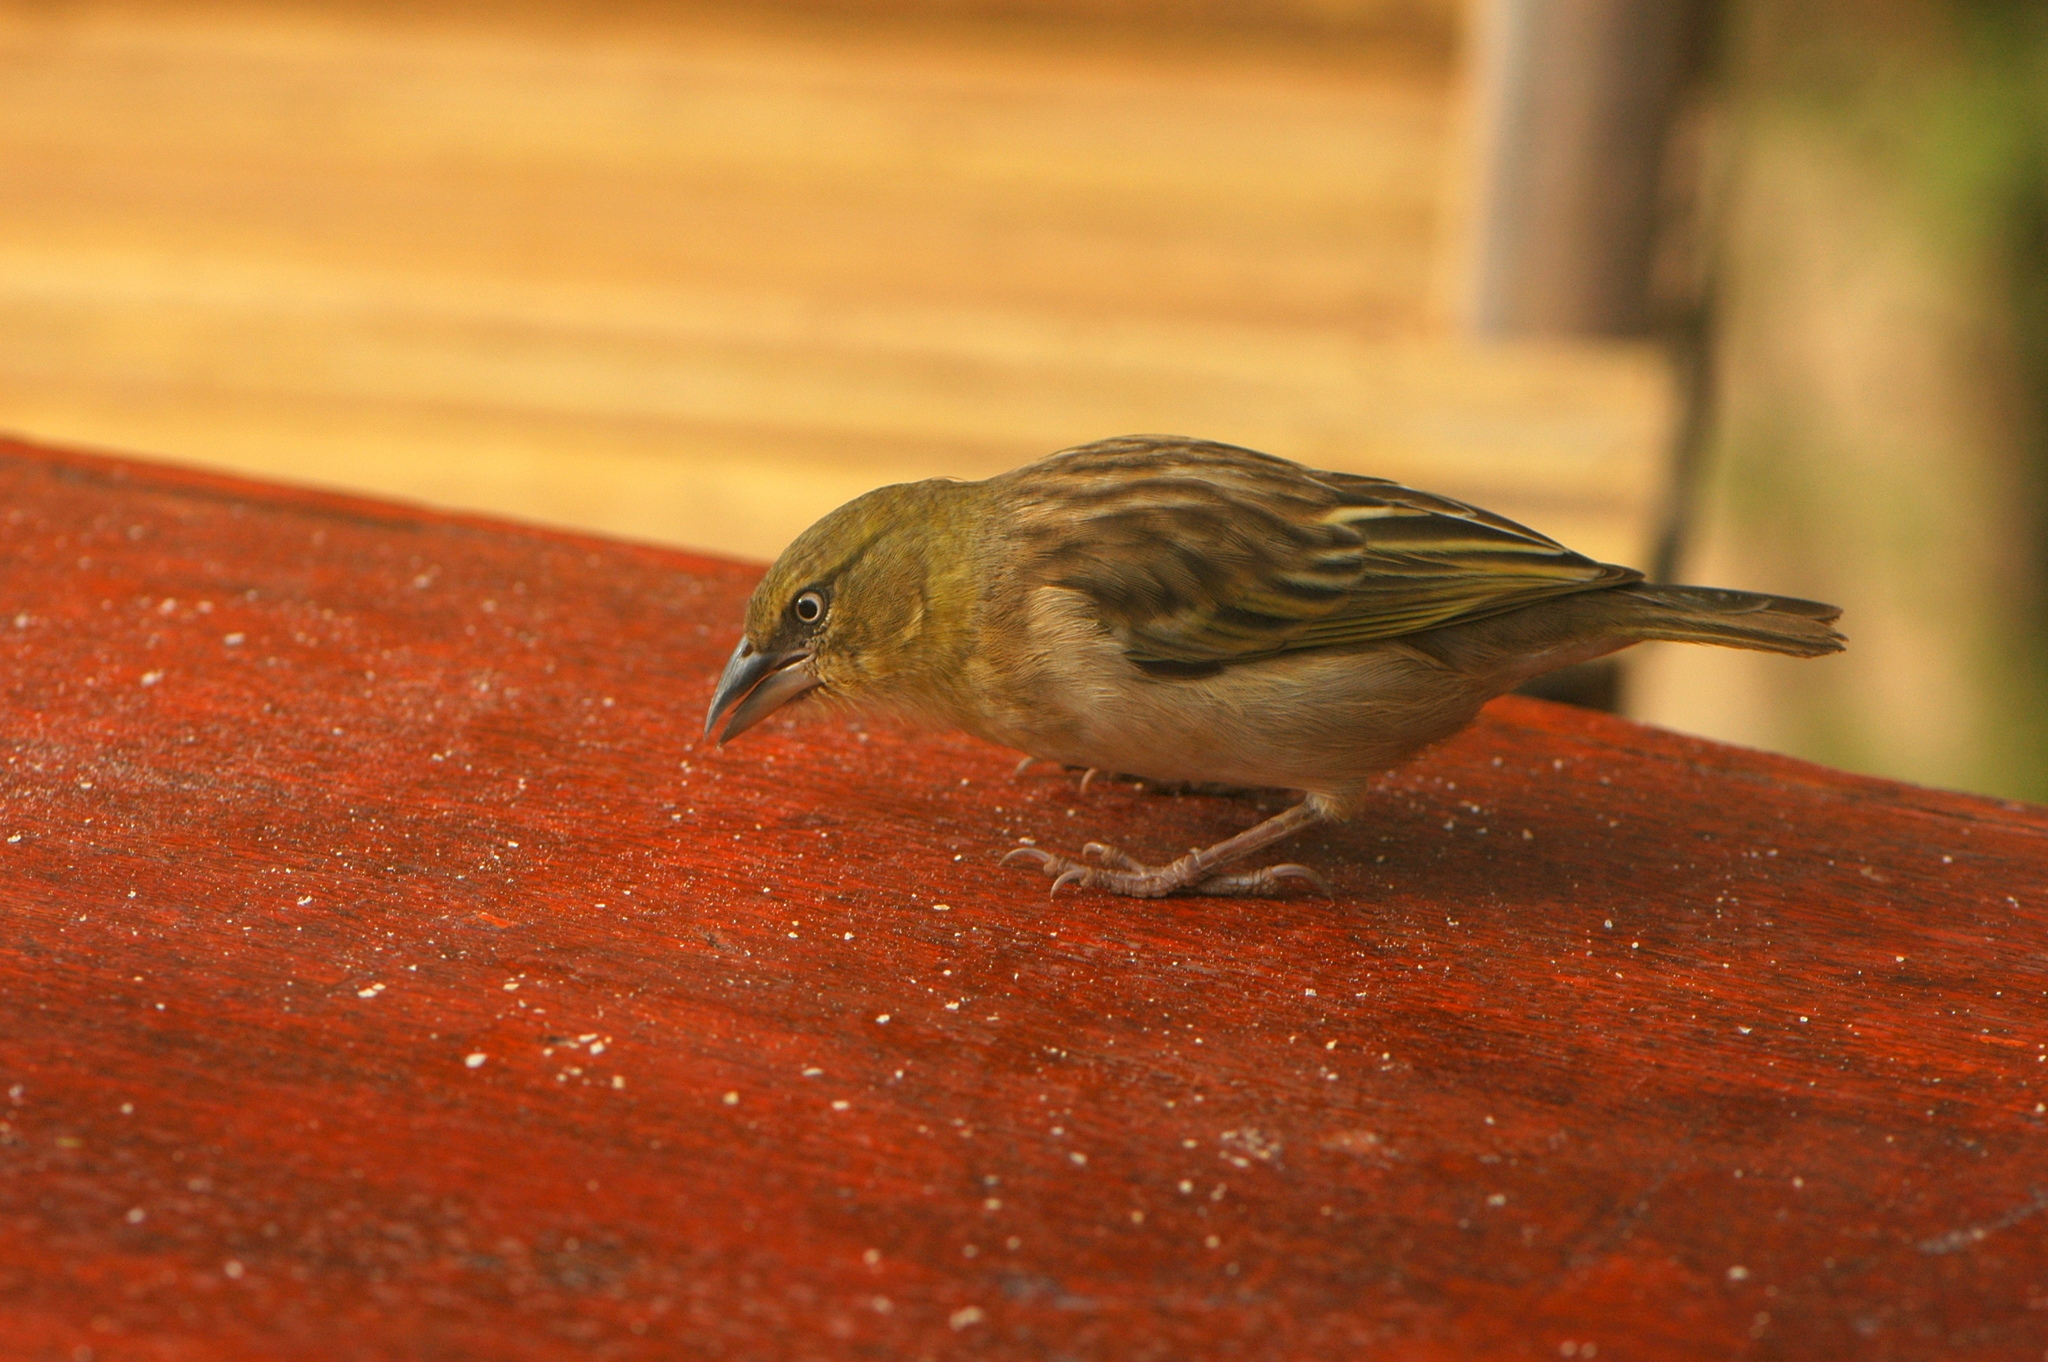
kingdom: Animalia
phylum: Chordata
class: Aves
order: Passeriformes
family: Ploceidae
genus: Ploceus
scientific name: Ploceus melanocephalus
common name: Black-headed weaver
